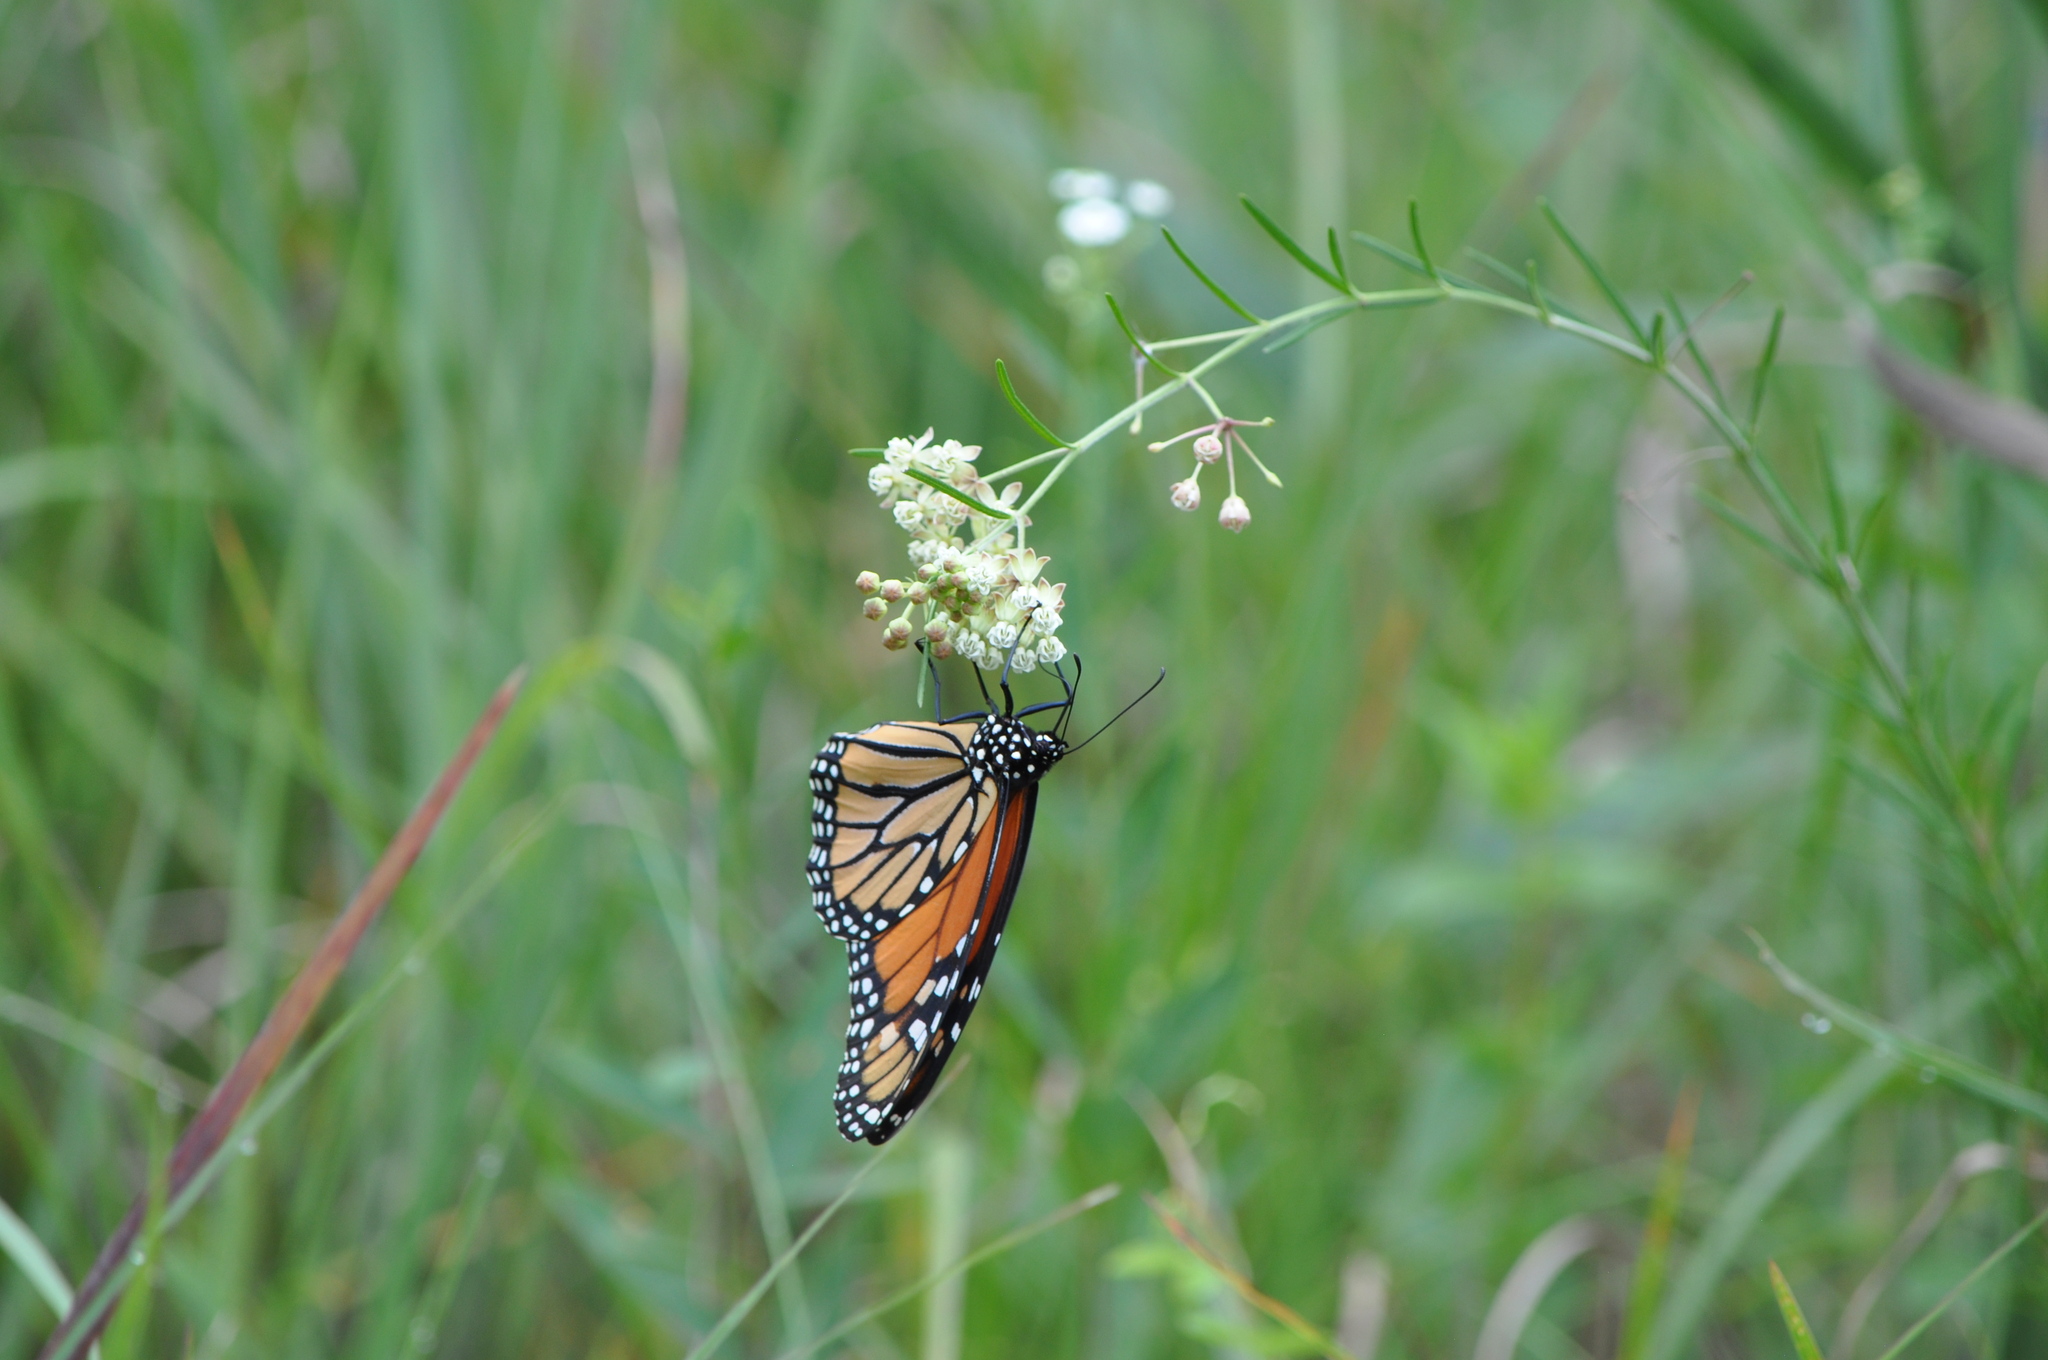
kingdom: Animalia
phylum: Arthropoda
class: Insecta
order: Lepidoptera
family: Nymphalidae
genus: Danaus
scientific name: Danaus plexippus
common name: Monarch
